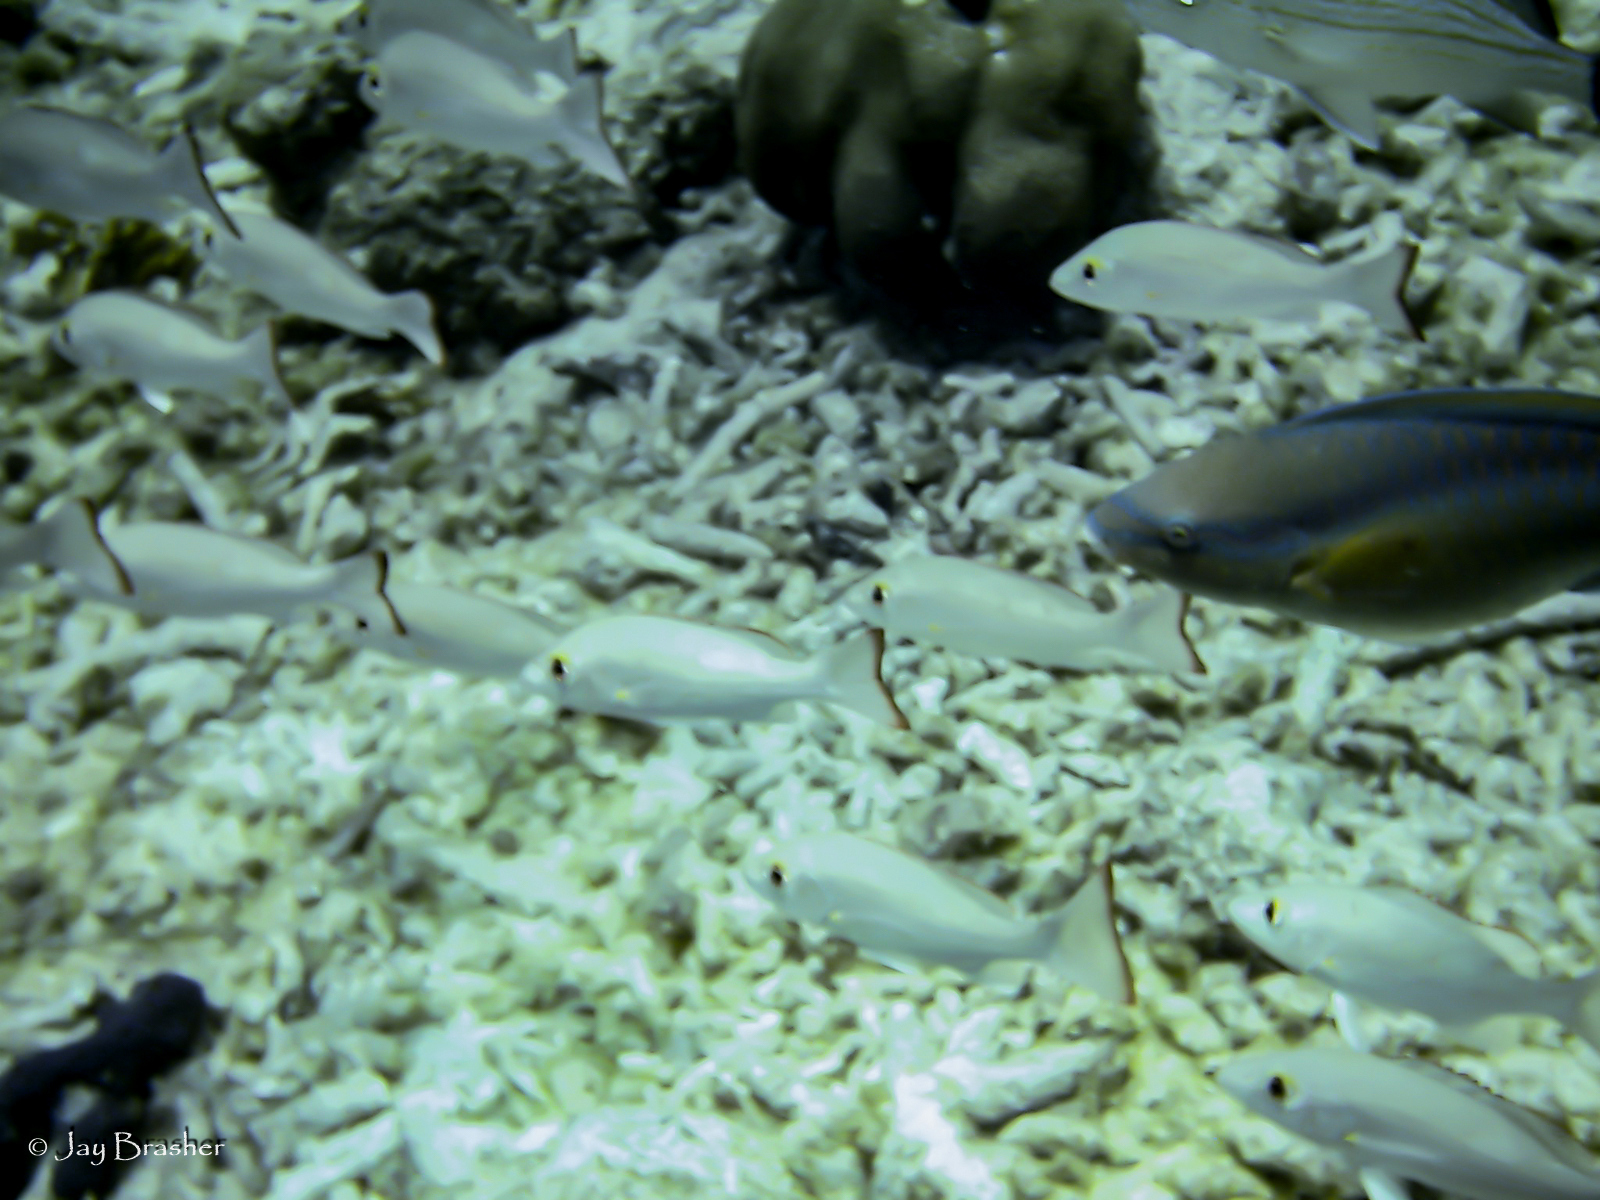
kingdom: Animalia
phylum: Chordata
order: Perciformes
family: Lutjanidae
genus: Lutjanus
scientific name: Lutjanus mahogoni
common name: Spot snapper
